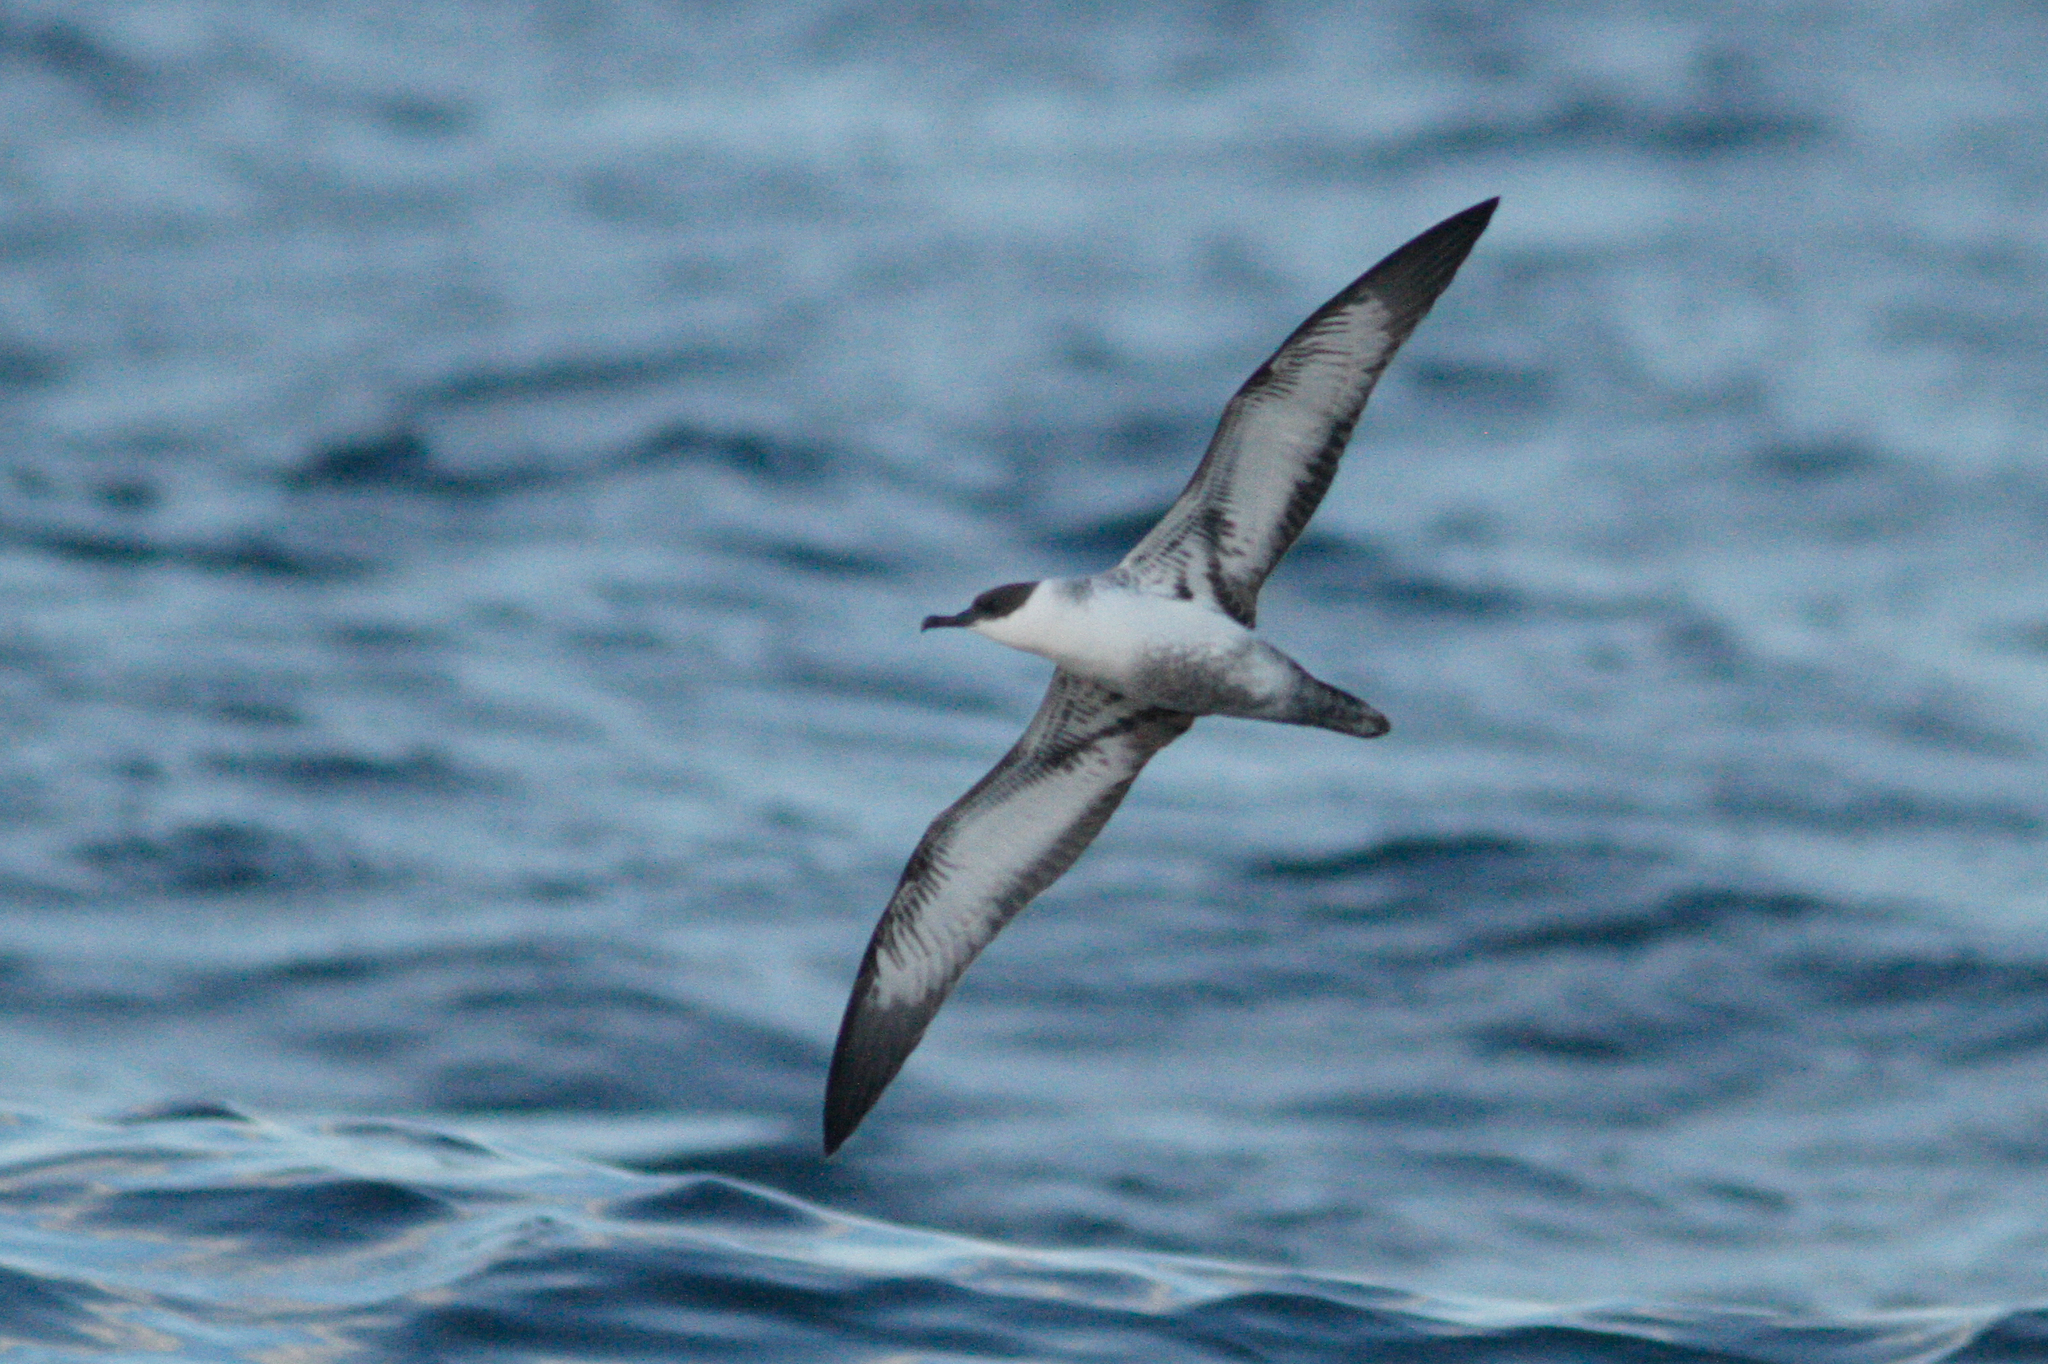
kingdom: Animalia
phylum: Chordata
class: Aves
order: Procellariiformes
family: Procellariidae
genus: Puffinus
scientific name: Puffinus gravis
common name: Great shearwater
